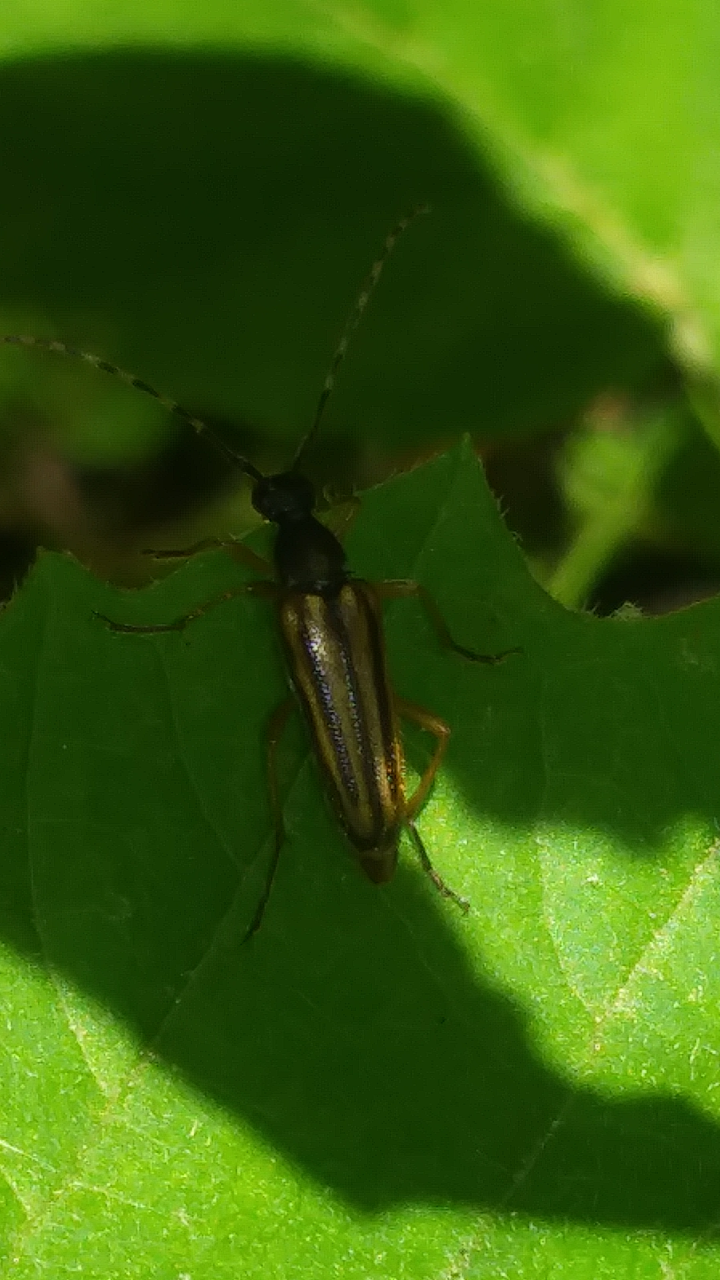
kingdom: Animalia
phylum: Arthropoda
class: Insecta
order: Coleoptera
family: Cerambycidae
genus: Analeptura
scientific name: Analeptura lineola
